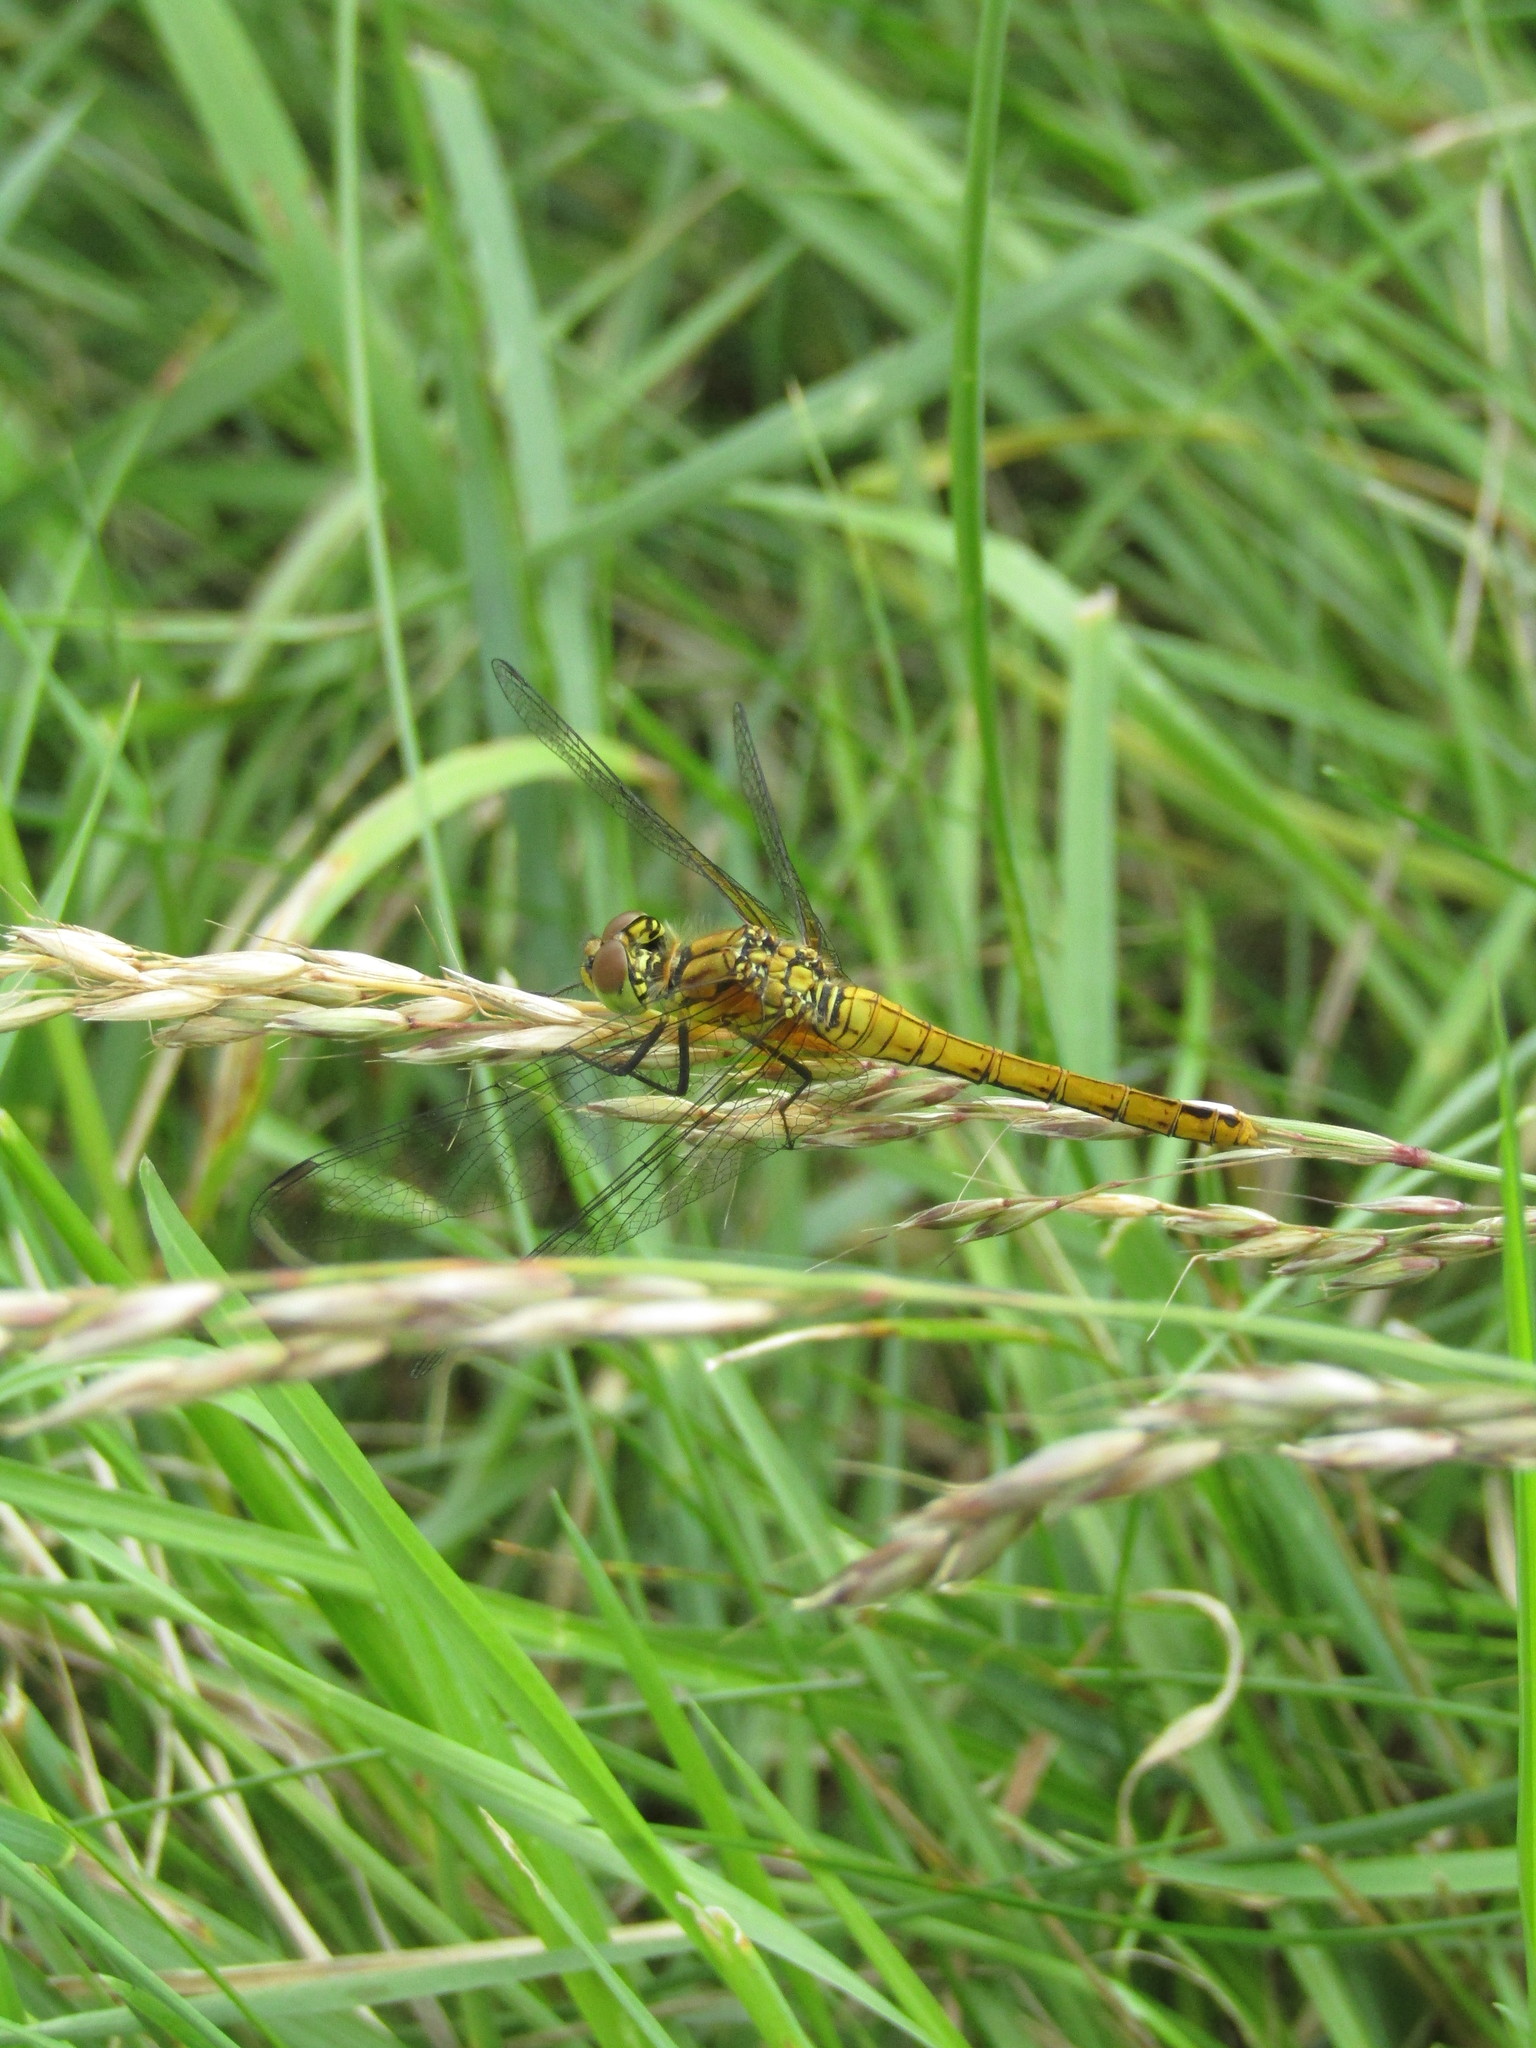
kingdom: Animalia
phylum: Arthropoda
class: Insecta
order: Odonata
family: Libellulidae
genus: Sympetrum
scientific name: Sympetrum sanguineum
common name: Ruddy darter
